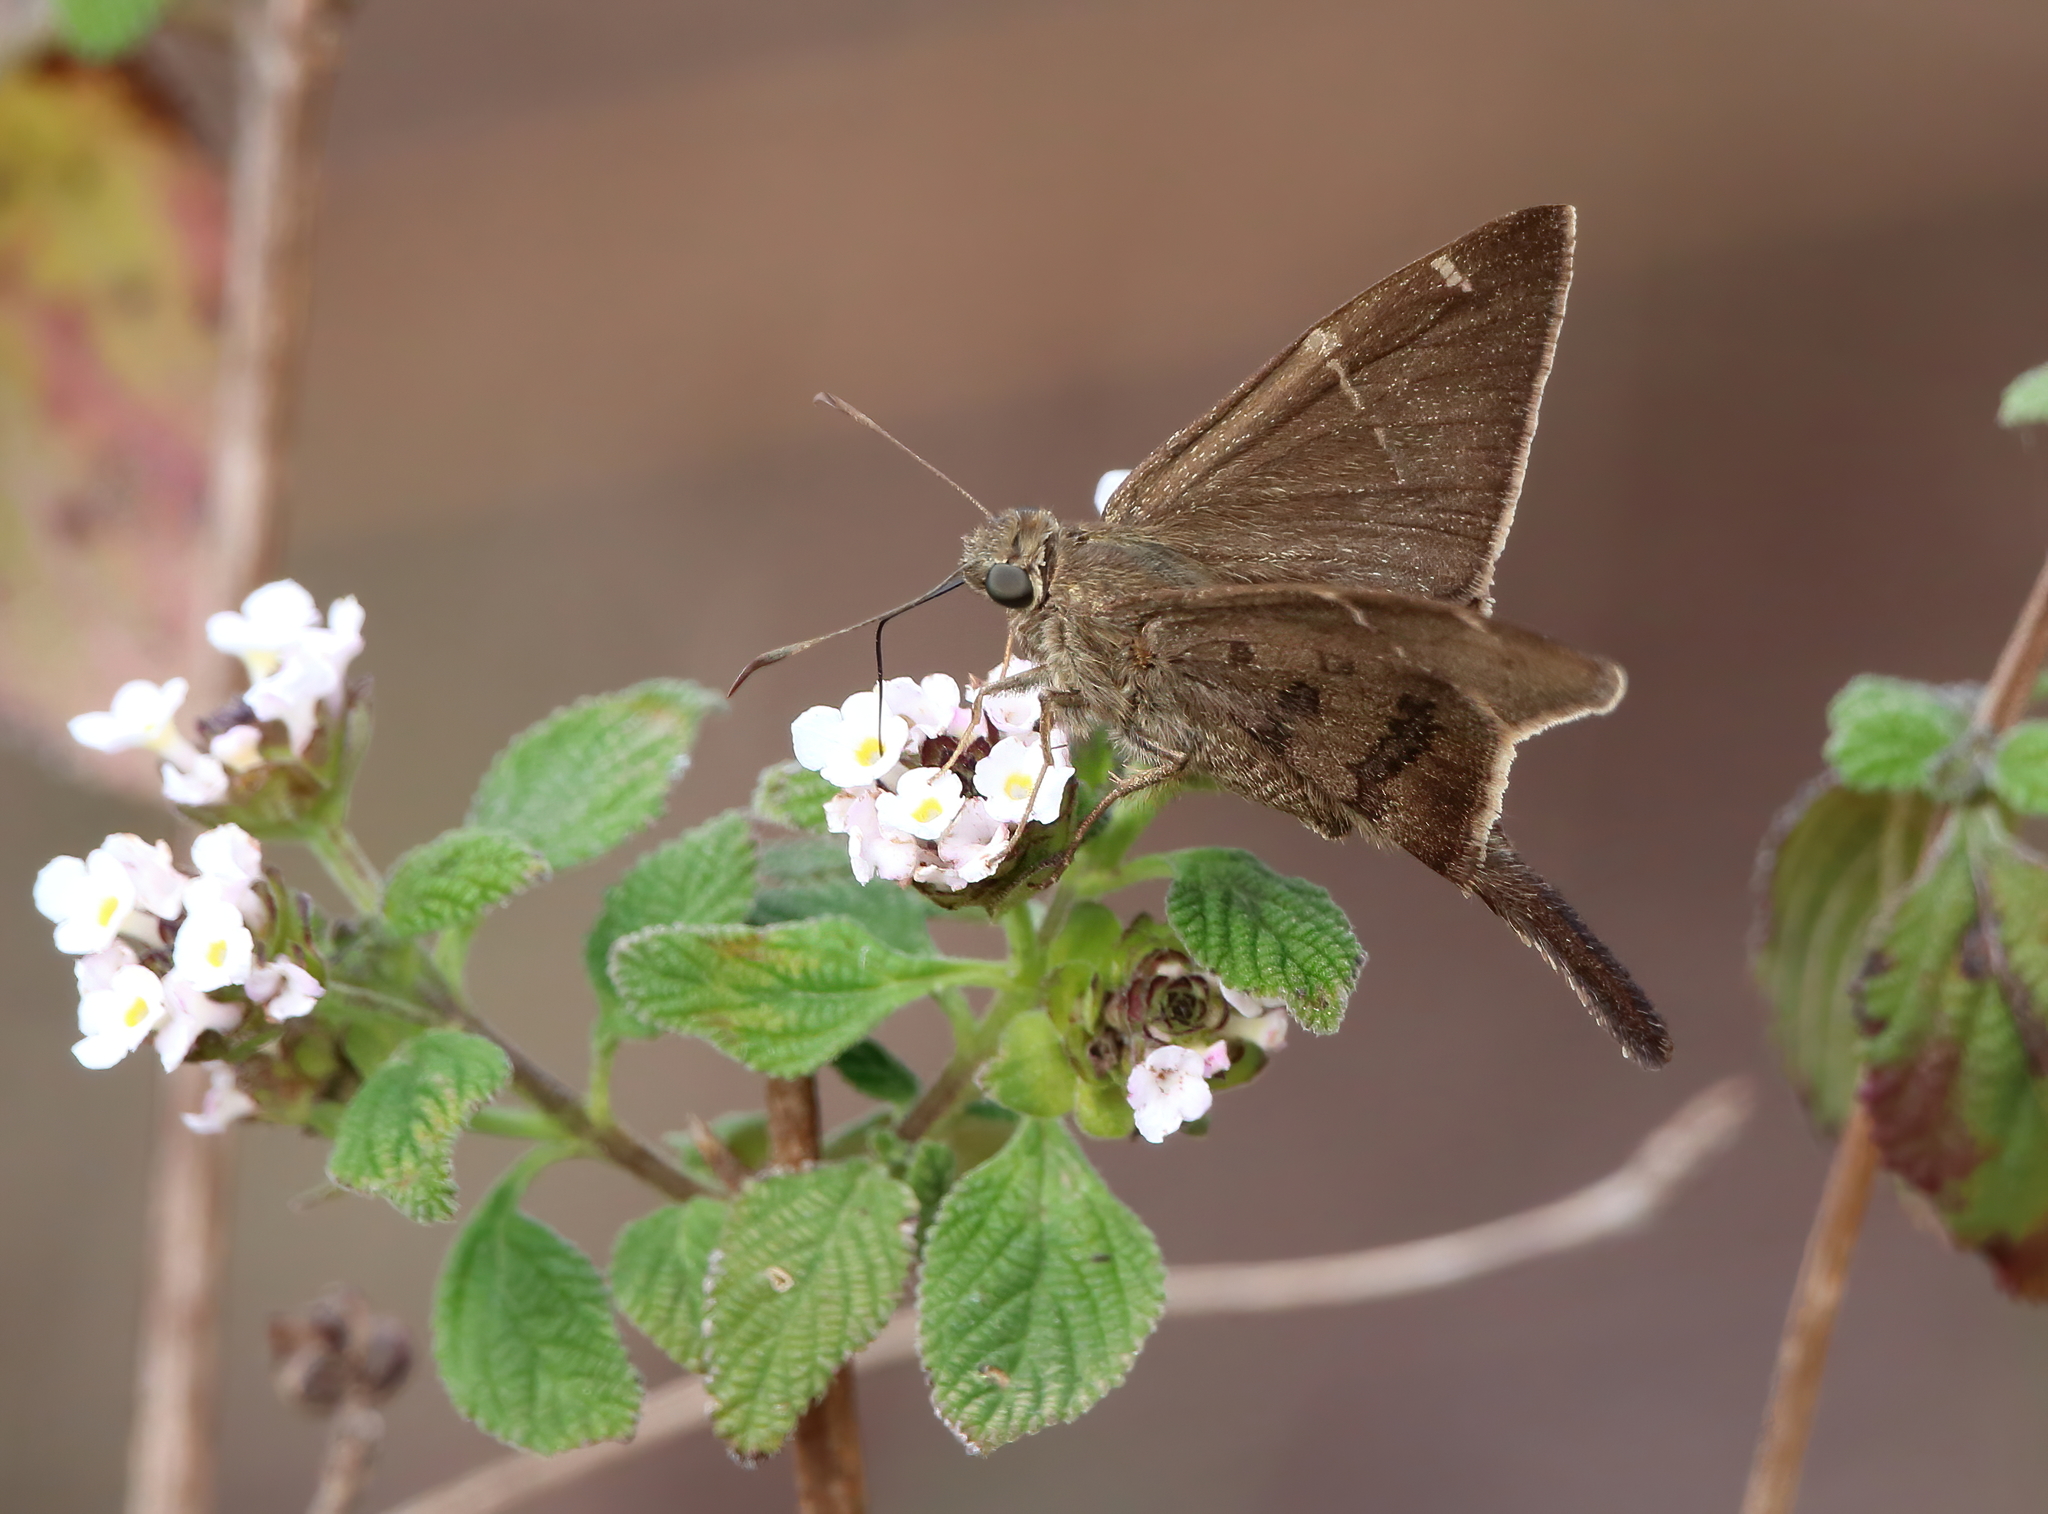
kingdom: Animalia
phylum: Arthropoda
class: Insecta
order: Lepidoptera
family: Hesperiidae
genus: Urbanus
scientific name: Urbanus procne
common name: Brown longtail
